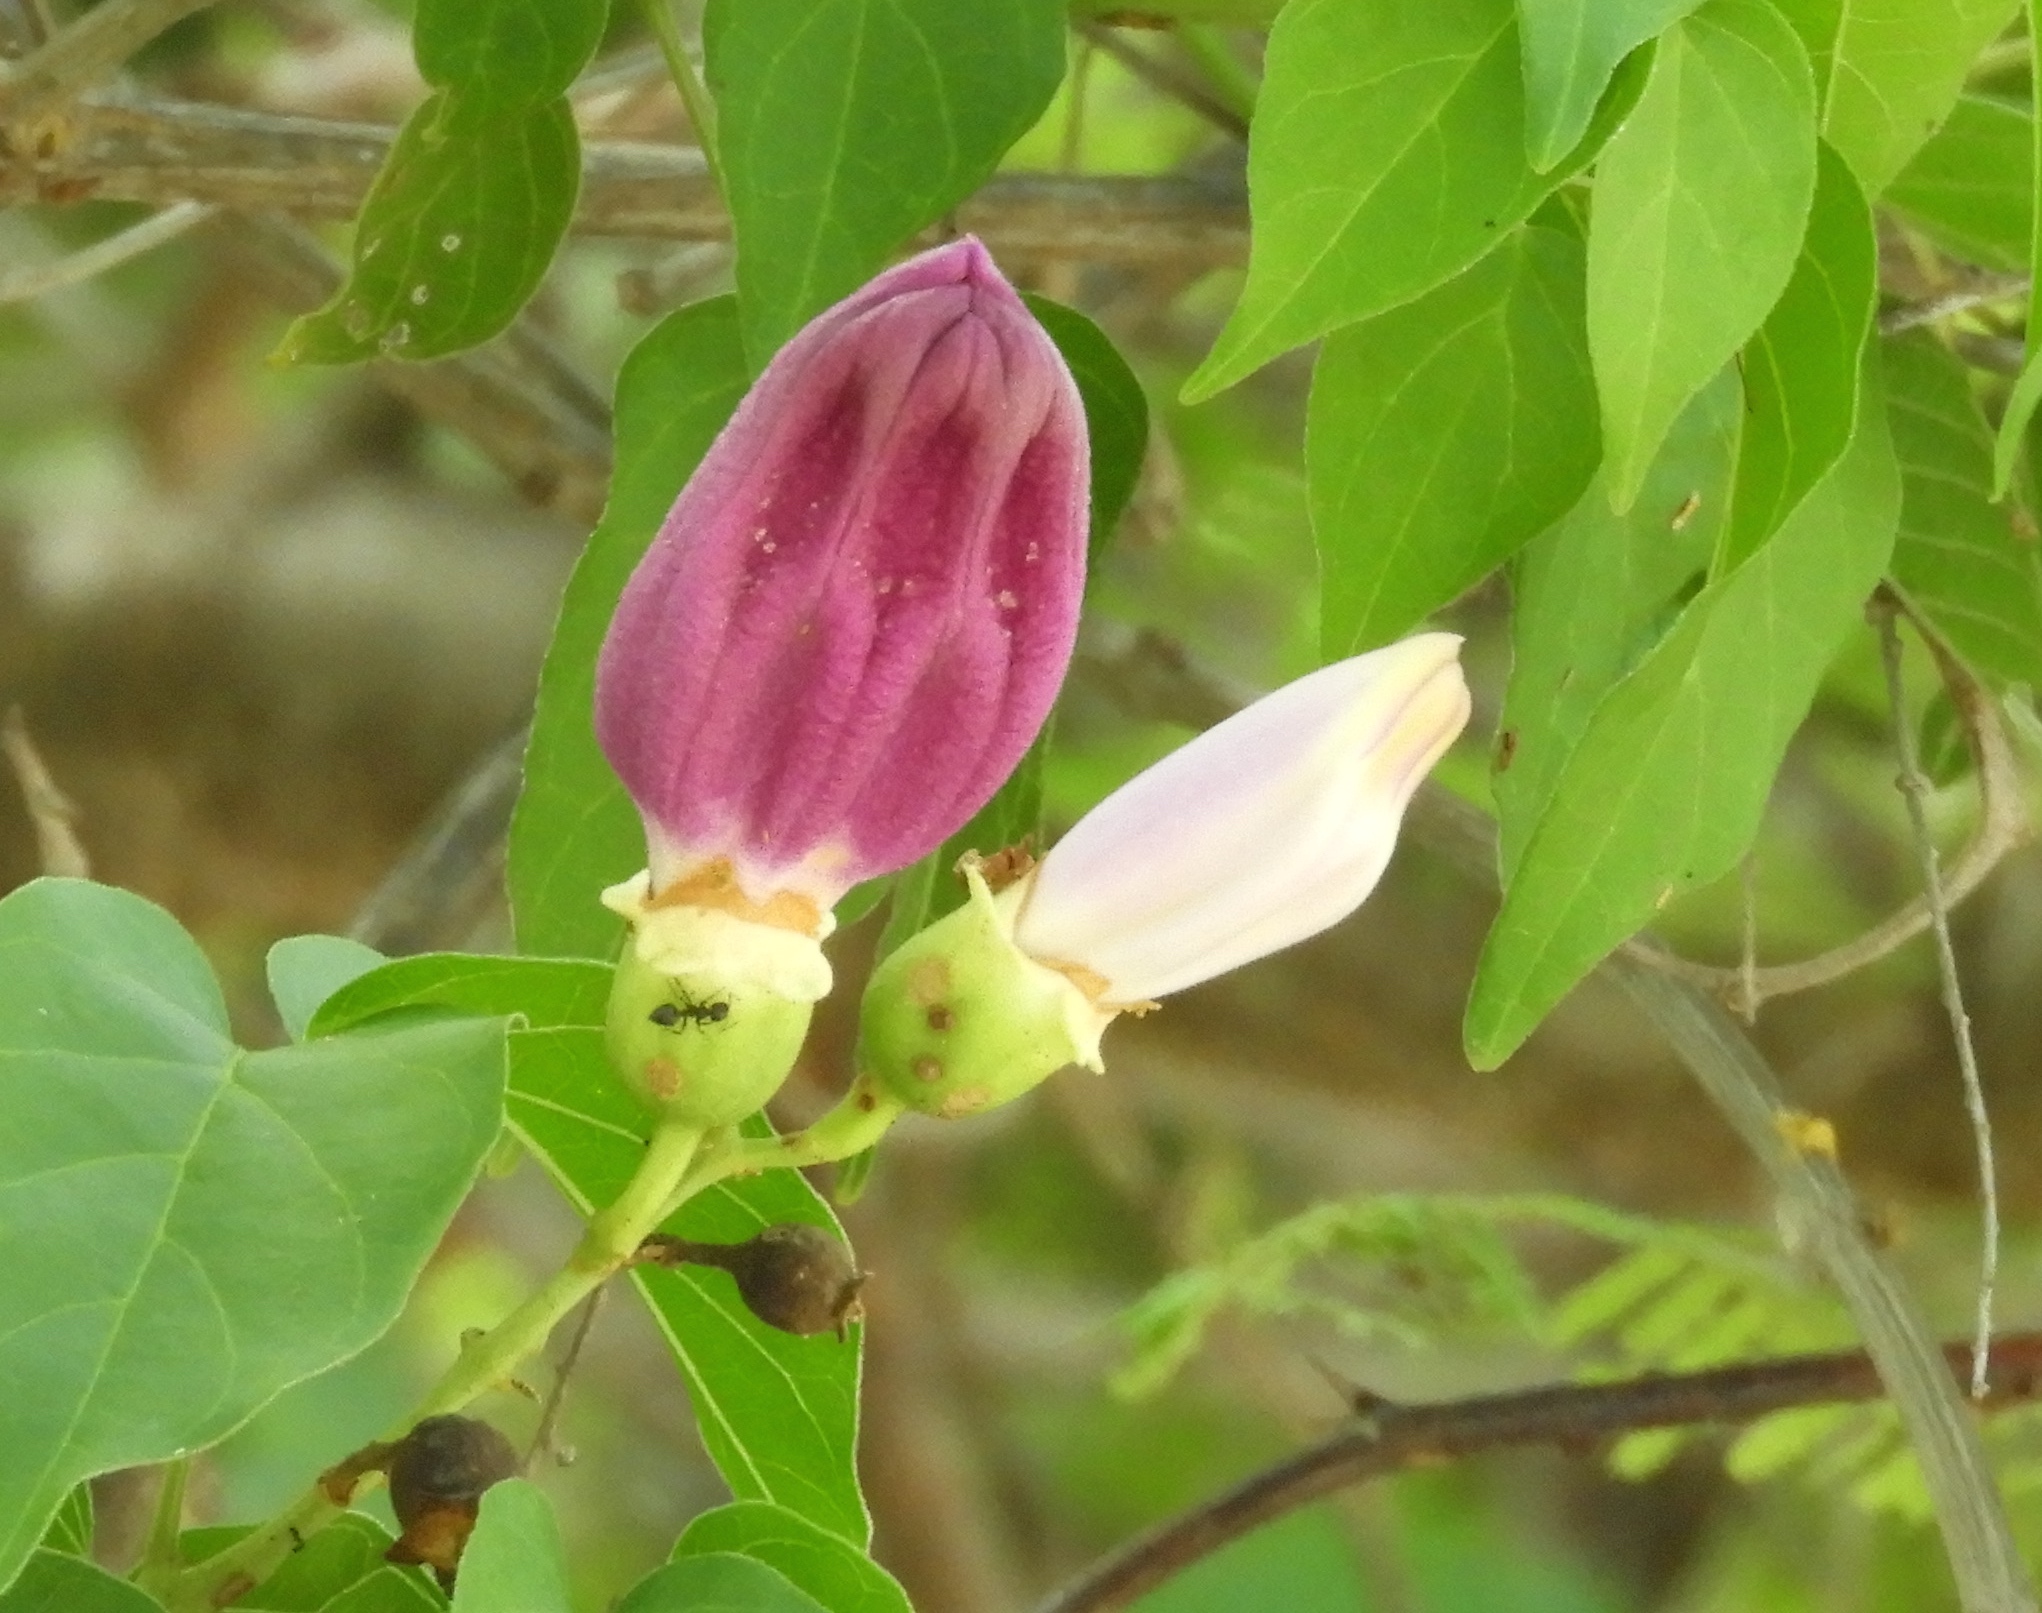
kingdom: Plantae
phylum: Tracheophyta
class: Magnoliopsida
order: Lamiales
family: Bignoniaceae
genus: Amphilophium
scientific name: Amphilophium paniculatum
